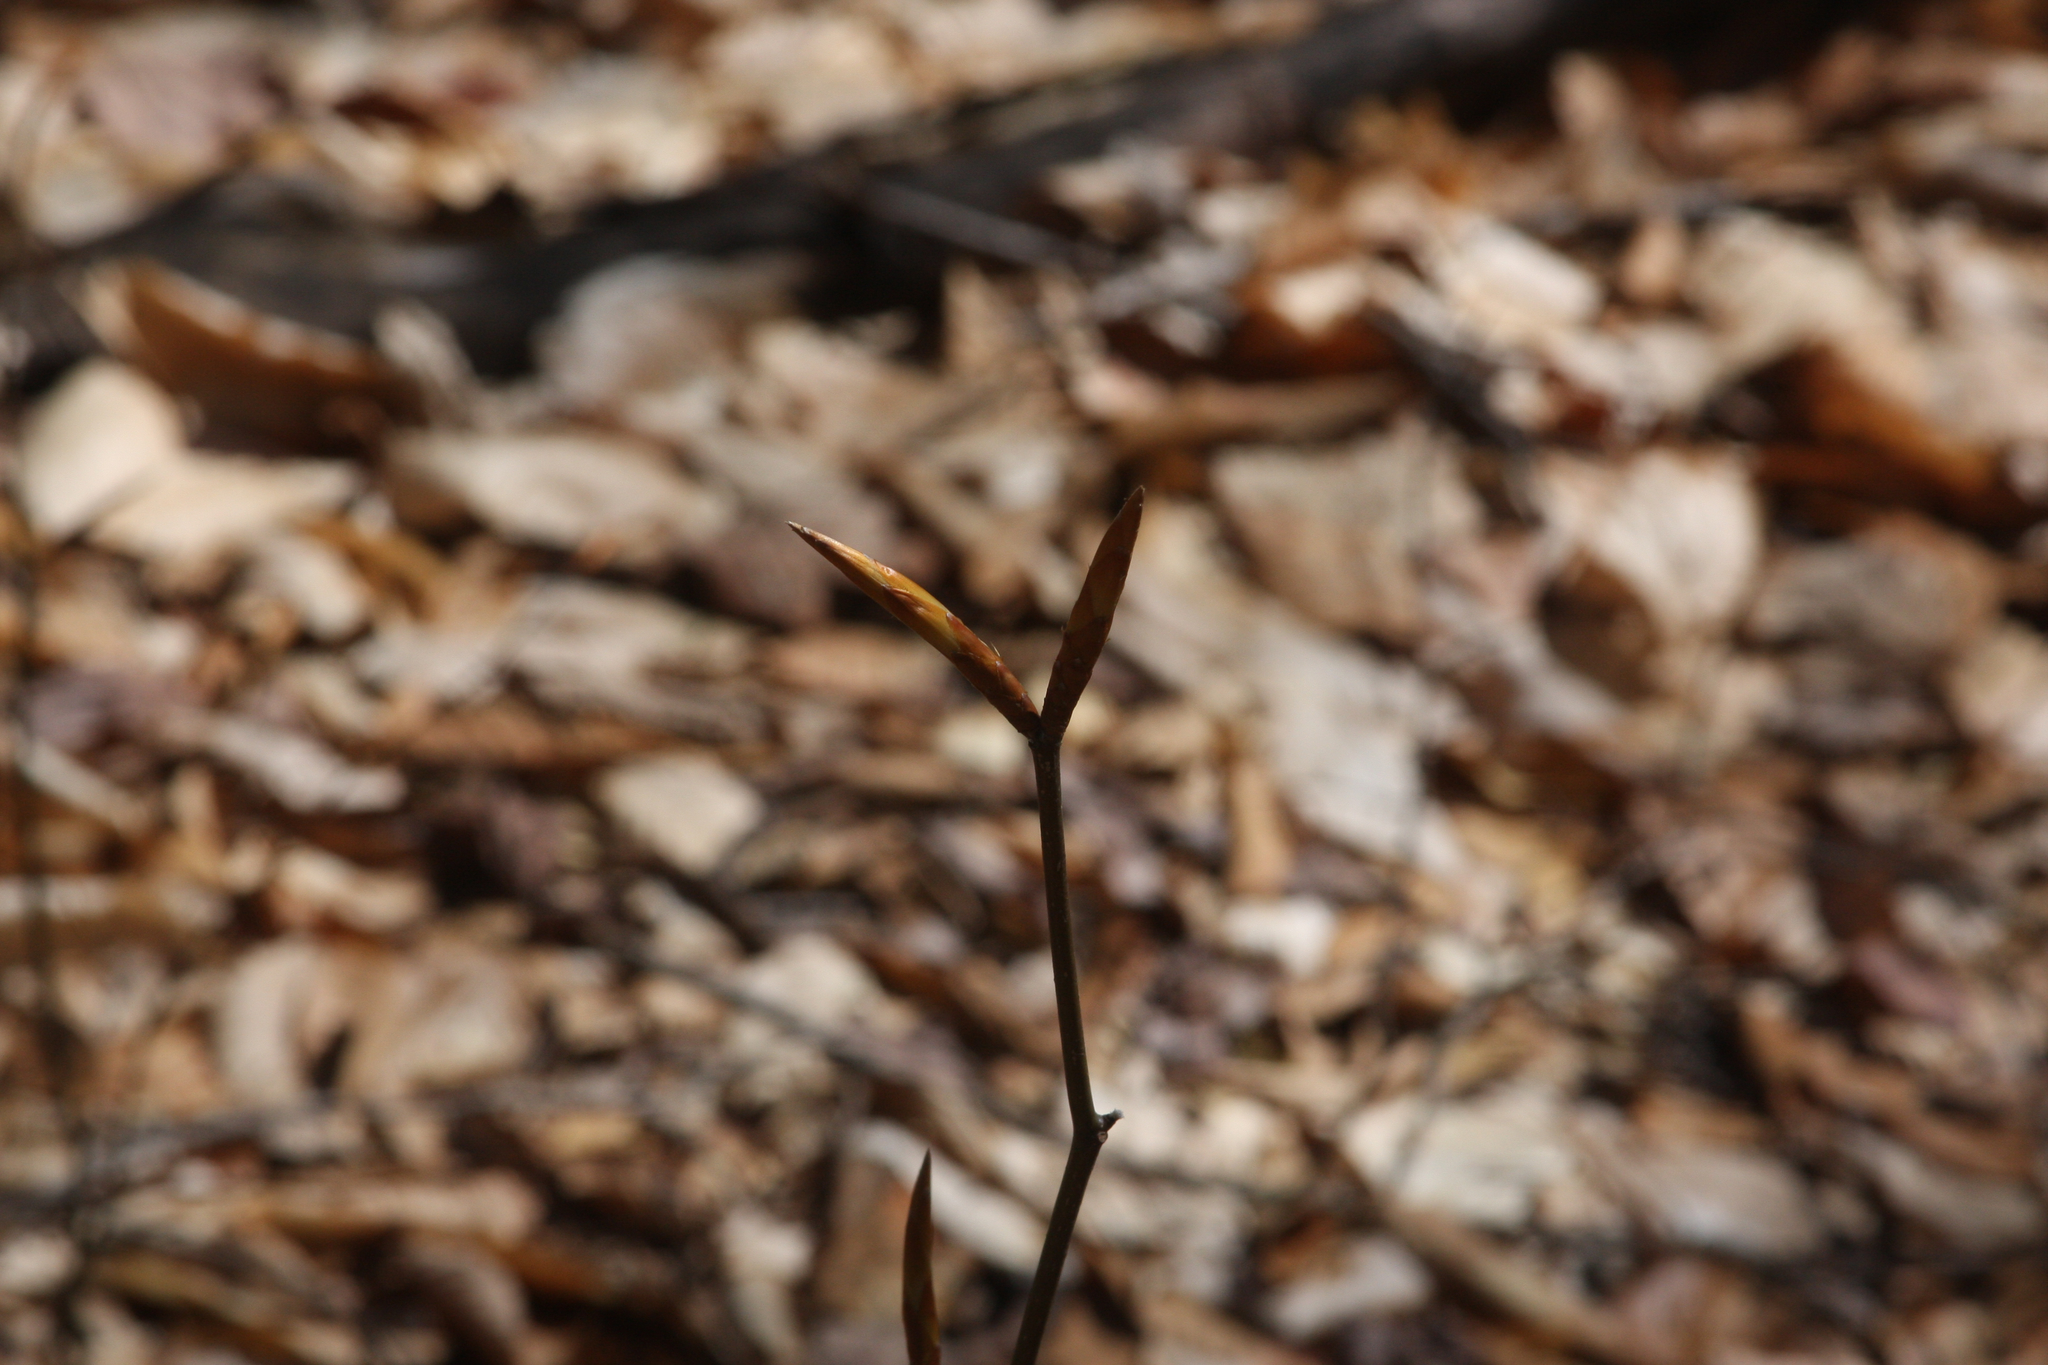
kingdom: Plantae
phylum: Tracheophyta
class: Magnoliopsida
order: Fagales
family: Fagaceae
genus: Fagus
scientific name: Fagus grandifolia
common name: American beech
